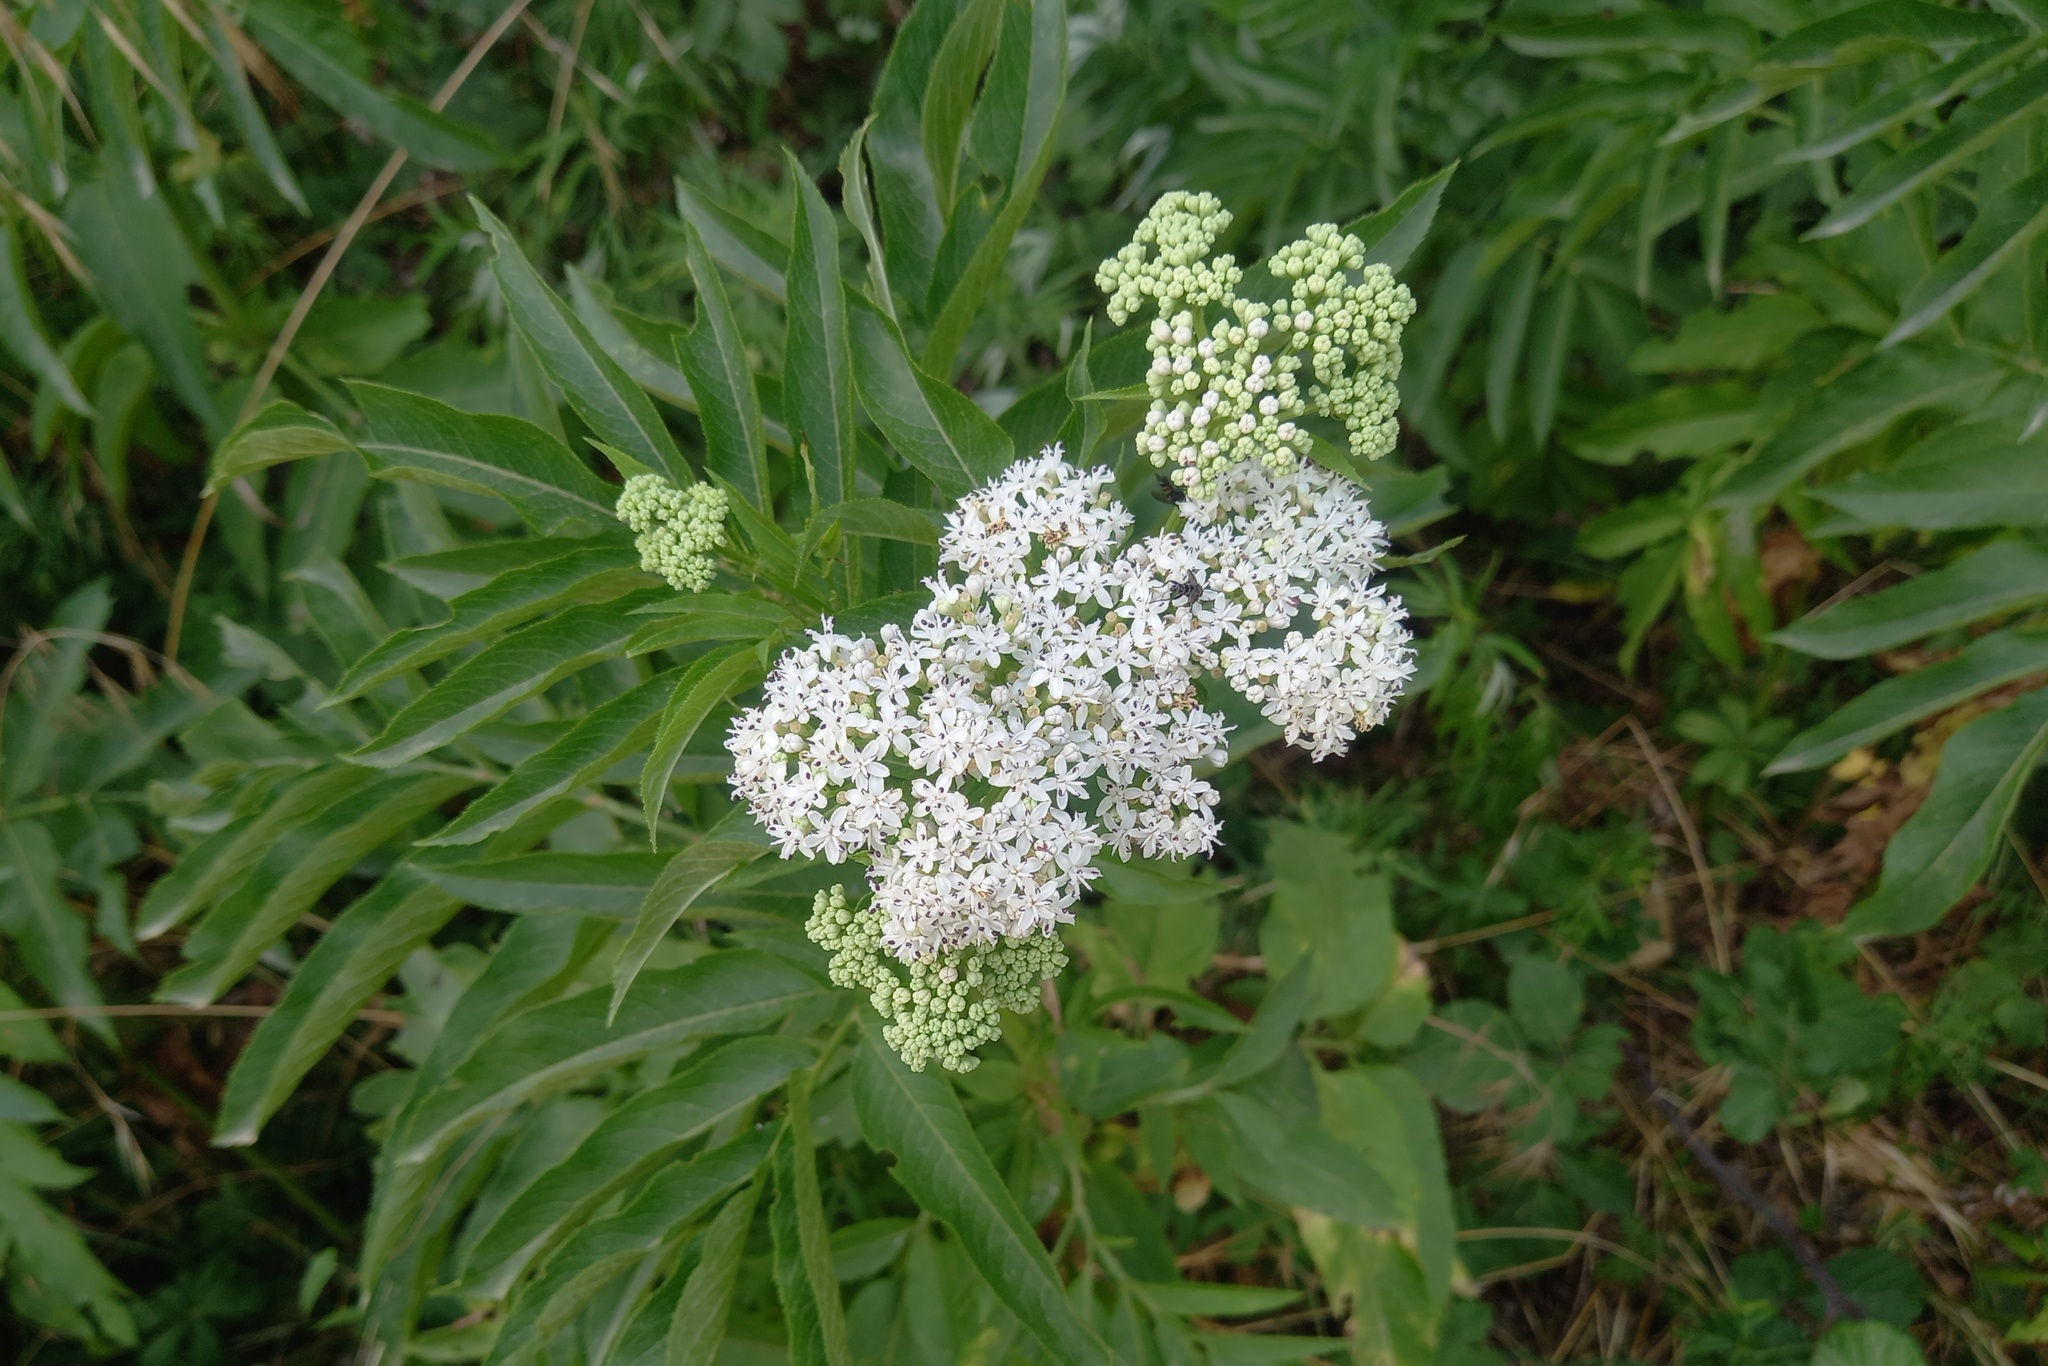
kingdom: Plantae
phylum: Tracheophyta
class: Magnoliopsida
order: Dipsacales
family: Viburnaceae
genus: Sambucus
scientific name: Sambucus ebulus
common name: Dwarf elder
